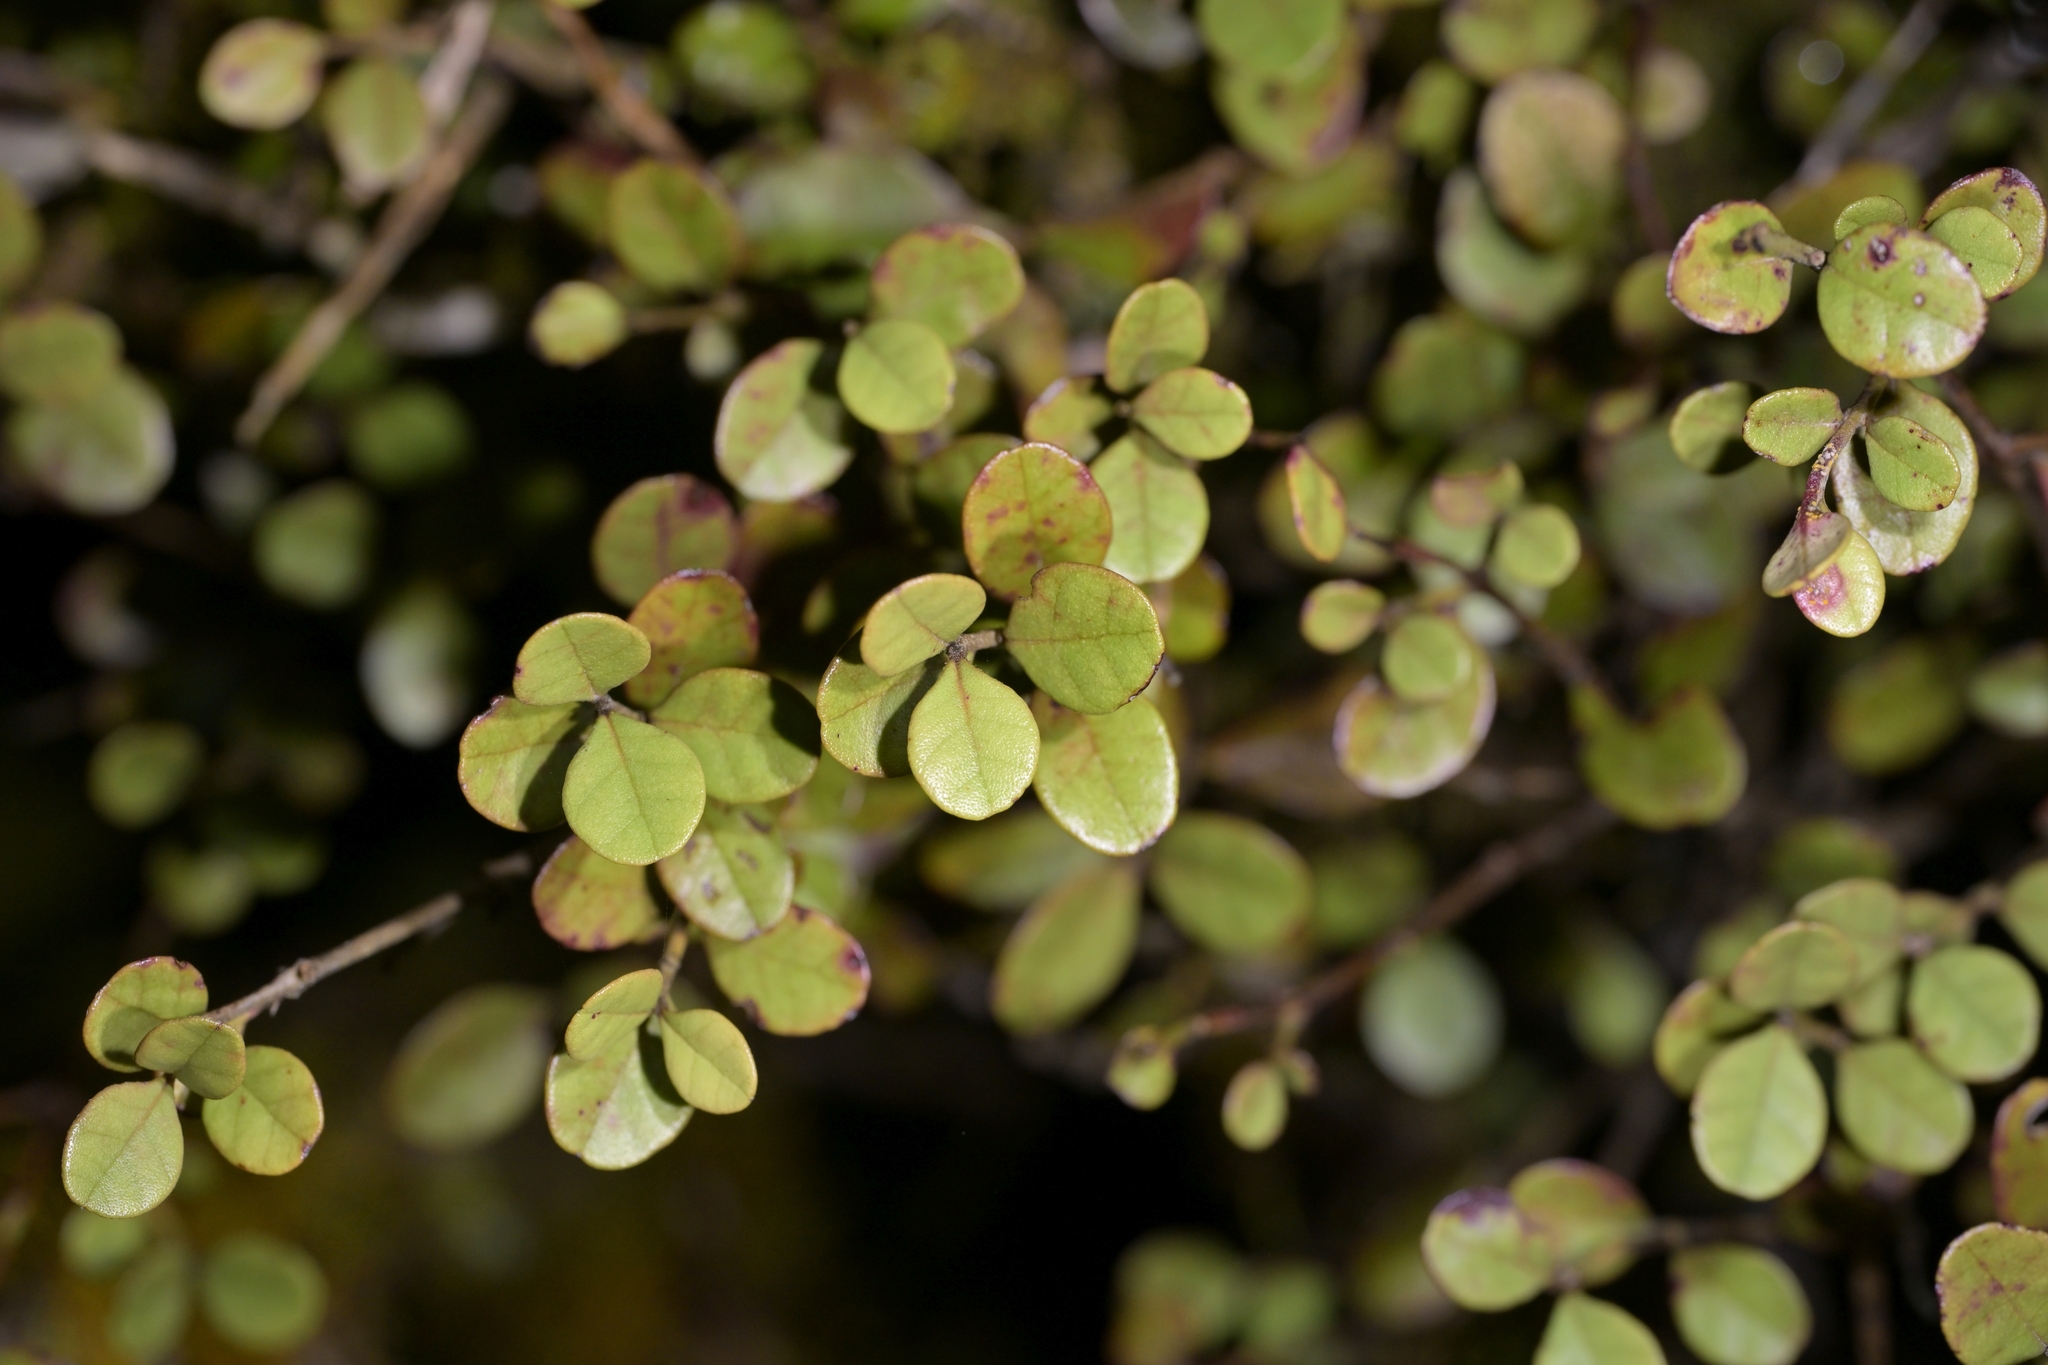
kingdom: Plantae
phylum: Tracheophyta
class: Magnoliopsida
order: Myrtales
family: Myrtaceae
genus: Lophomyrtus
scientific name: Lophomyrtus obcordata
